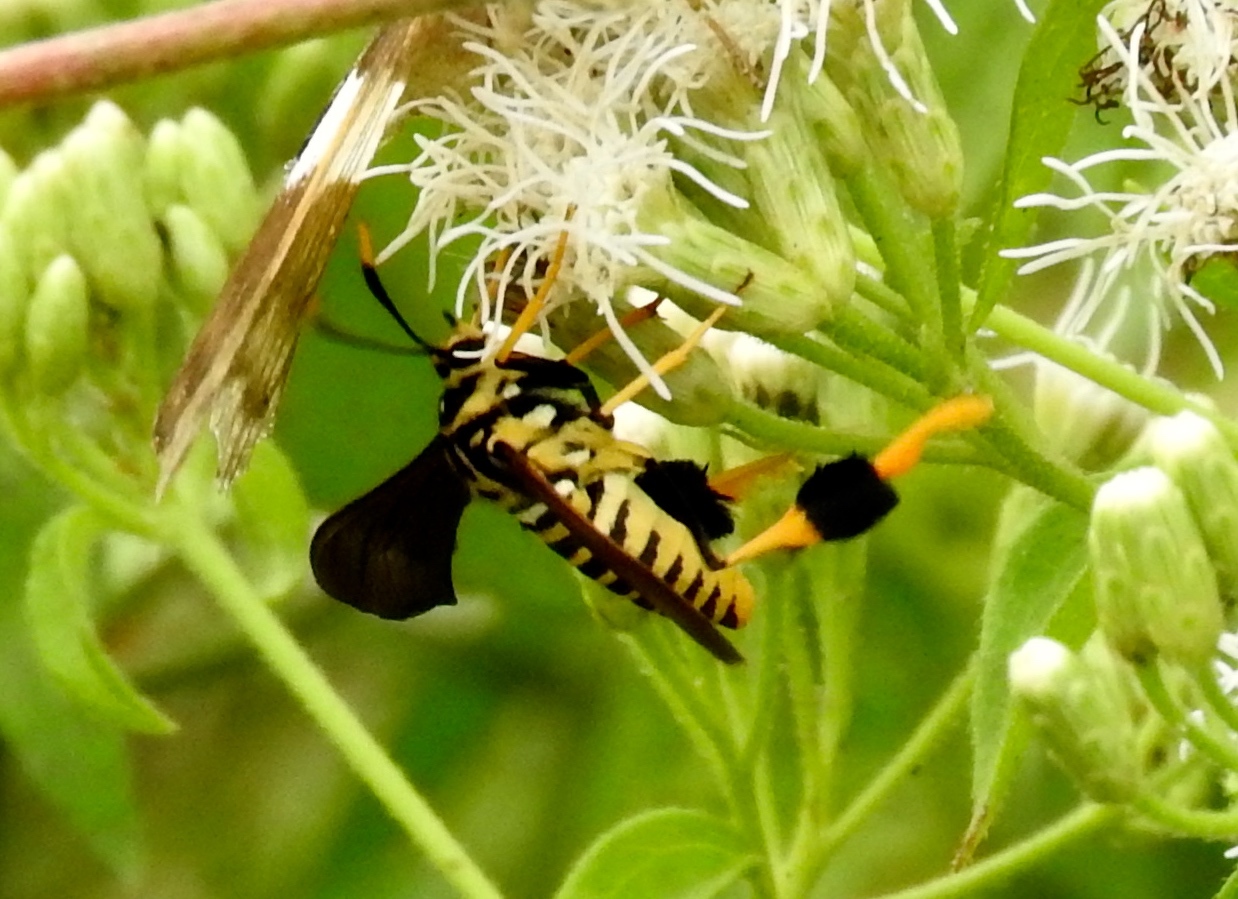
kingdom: Animalia
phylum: Arthropoda
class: Insecta
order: Lepidoptera
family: Erebidae
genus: Horama
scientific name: Horama panthalon
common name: Texas wasp moth
